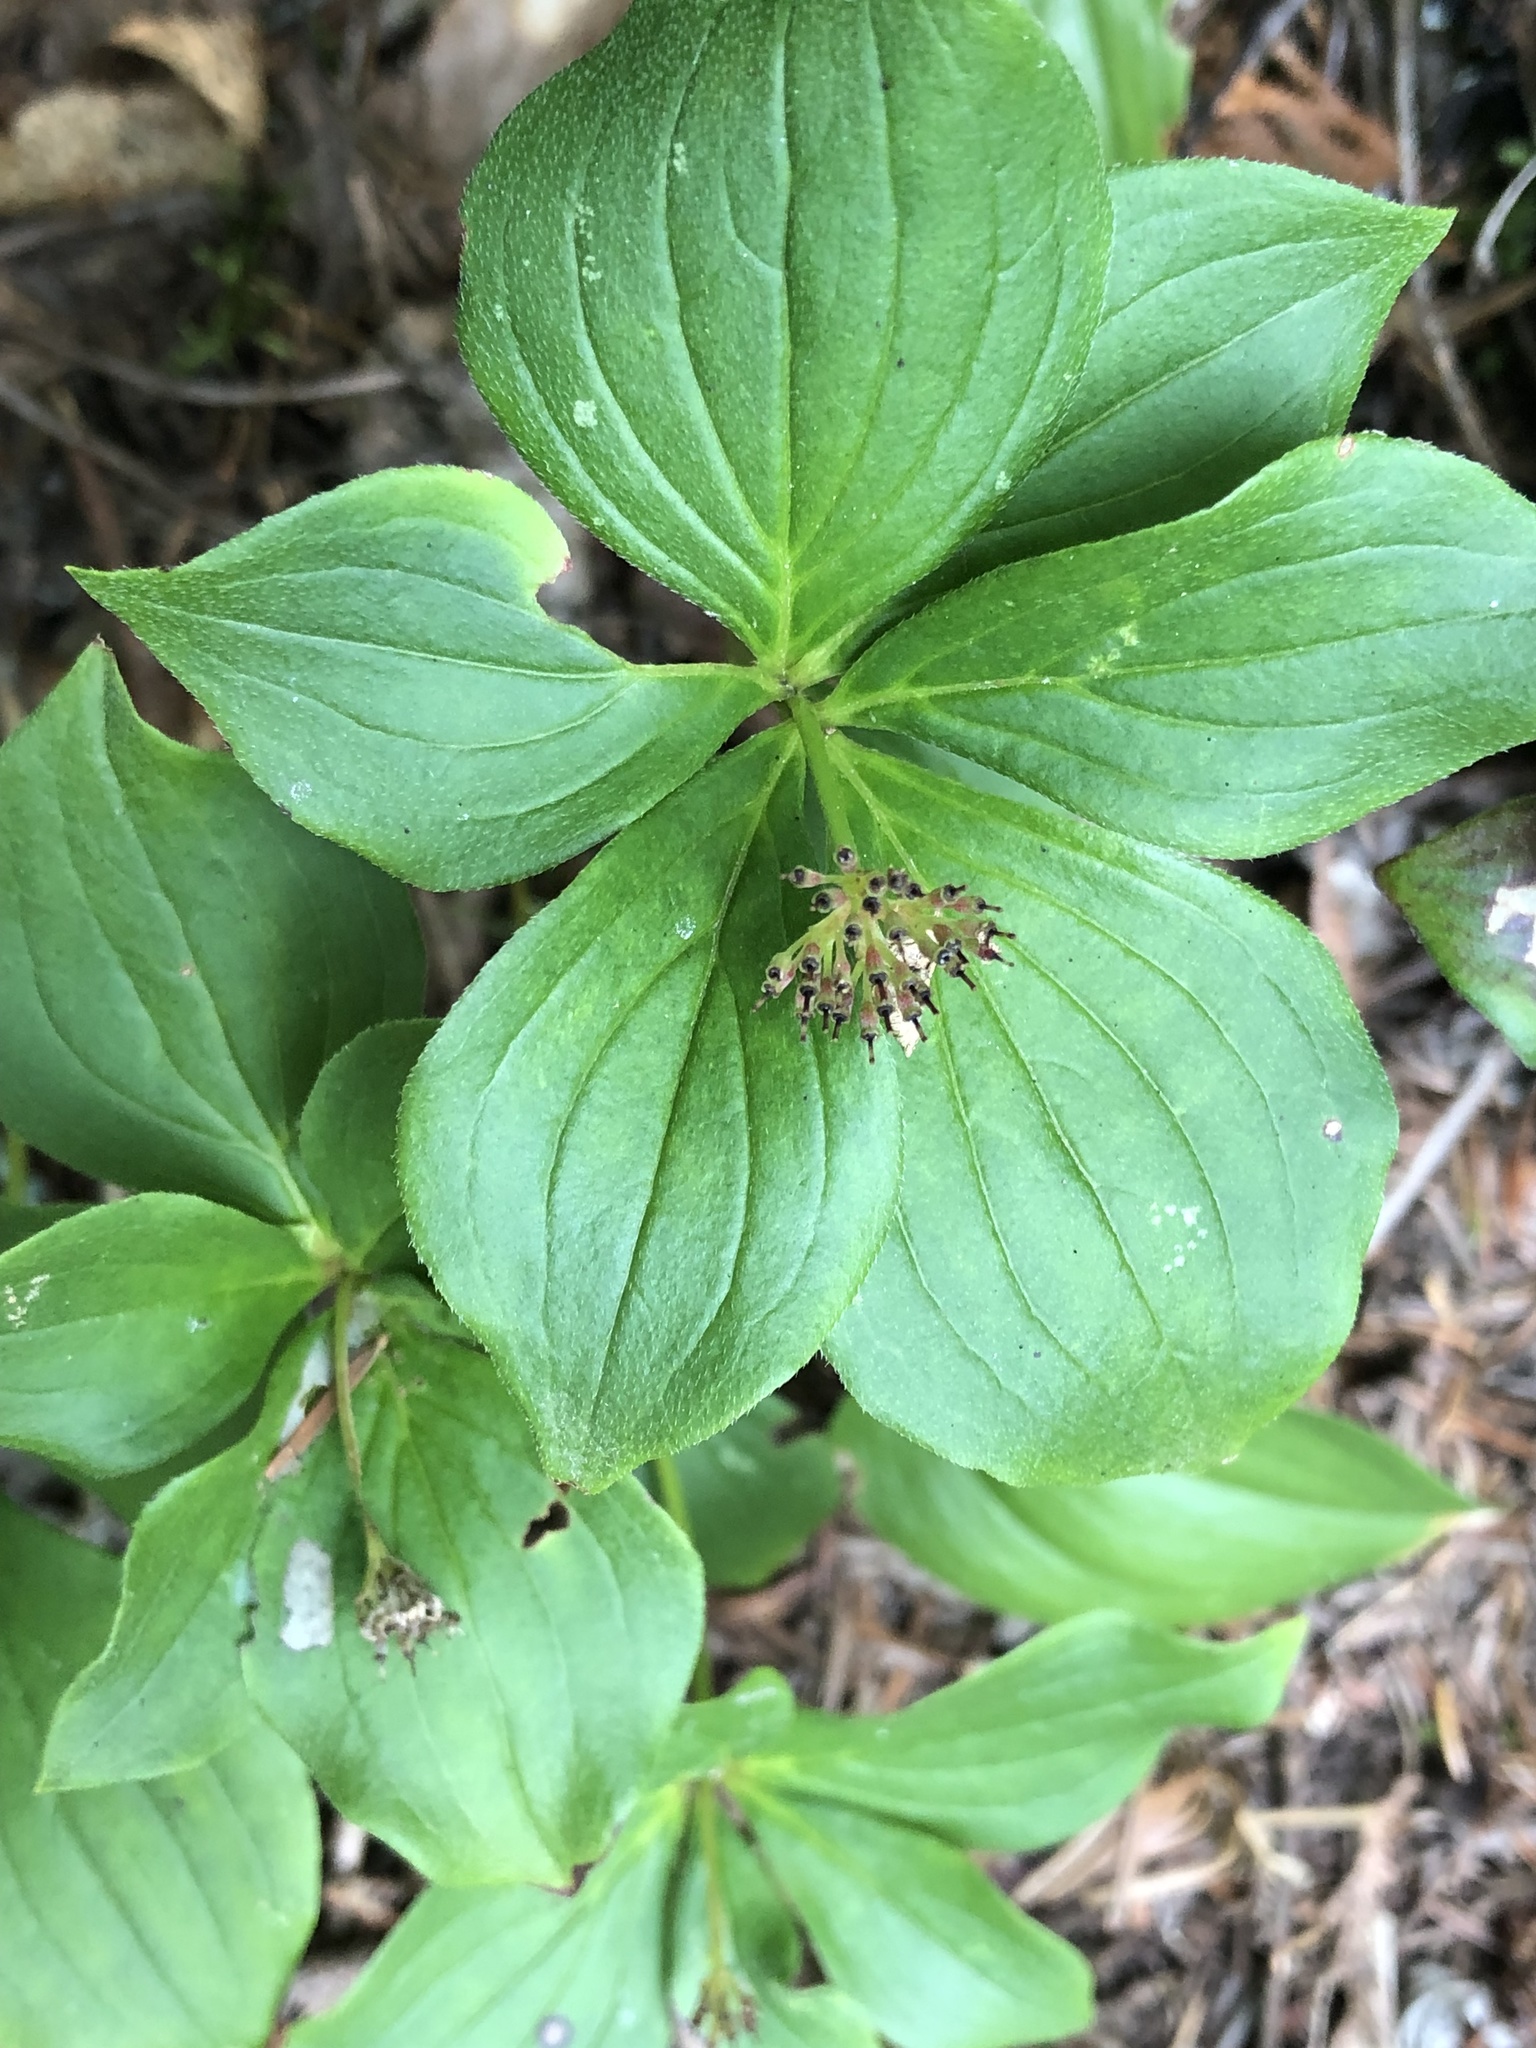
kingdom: Plantae
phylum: Tracheophyta
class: Magnoliopsida
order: Cornales
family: Cornaceae
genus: Cornus
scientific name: Cornus canadensis
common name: Creeping dogwood
